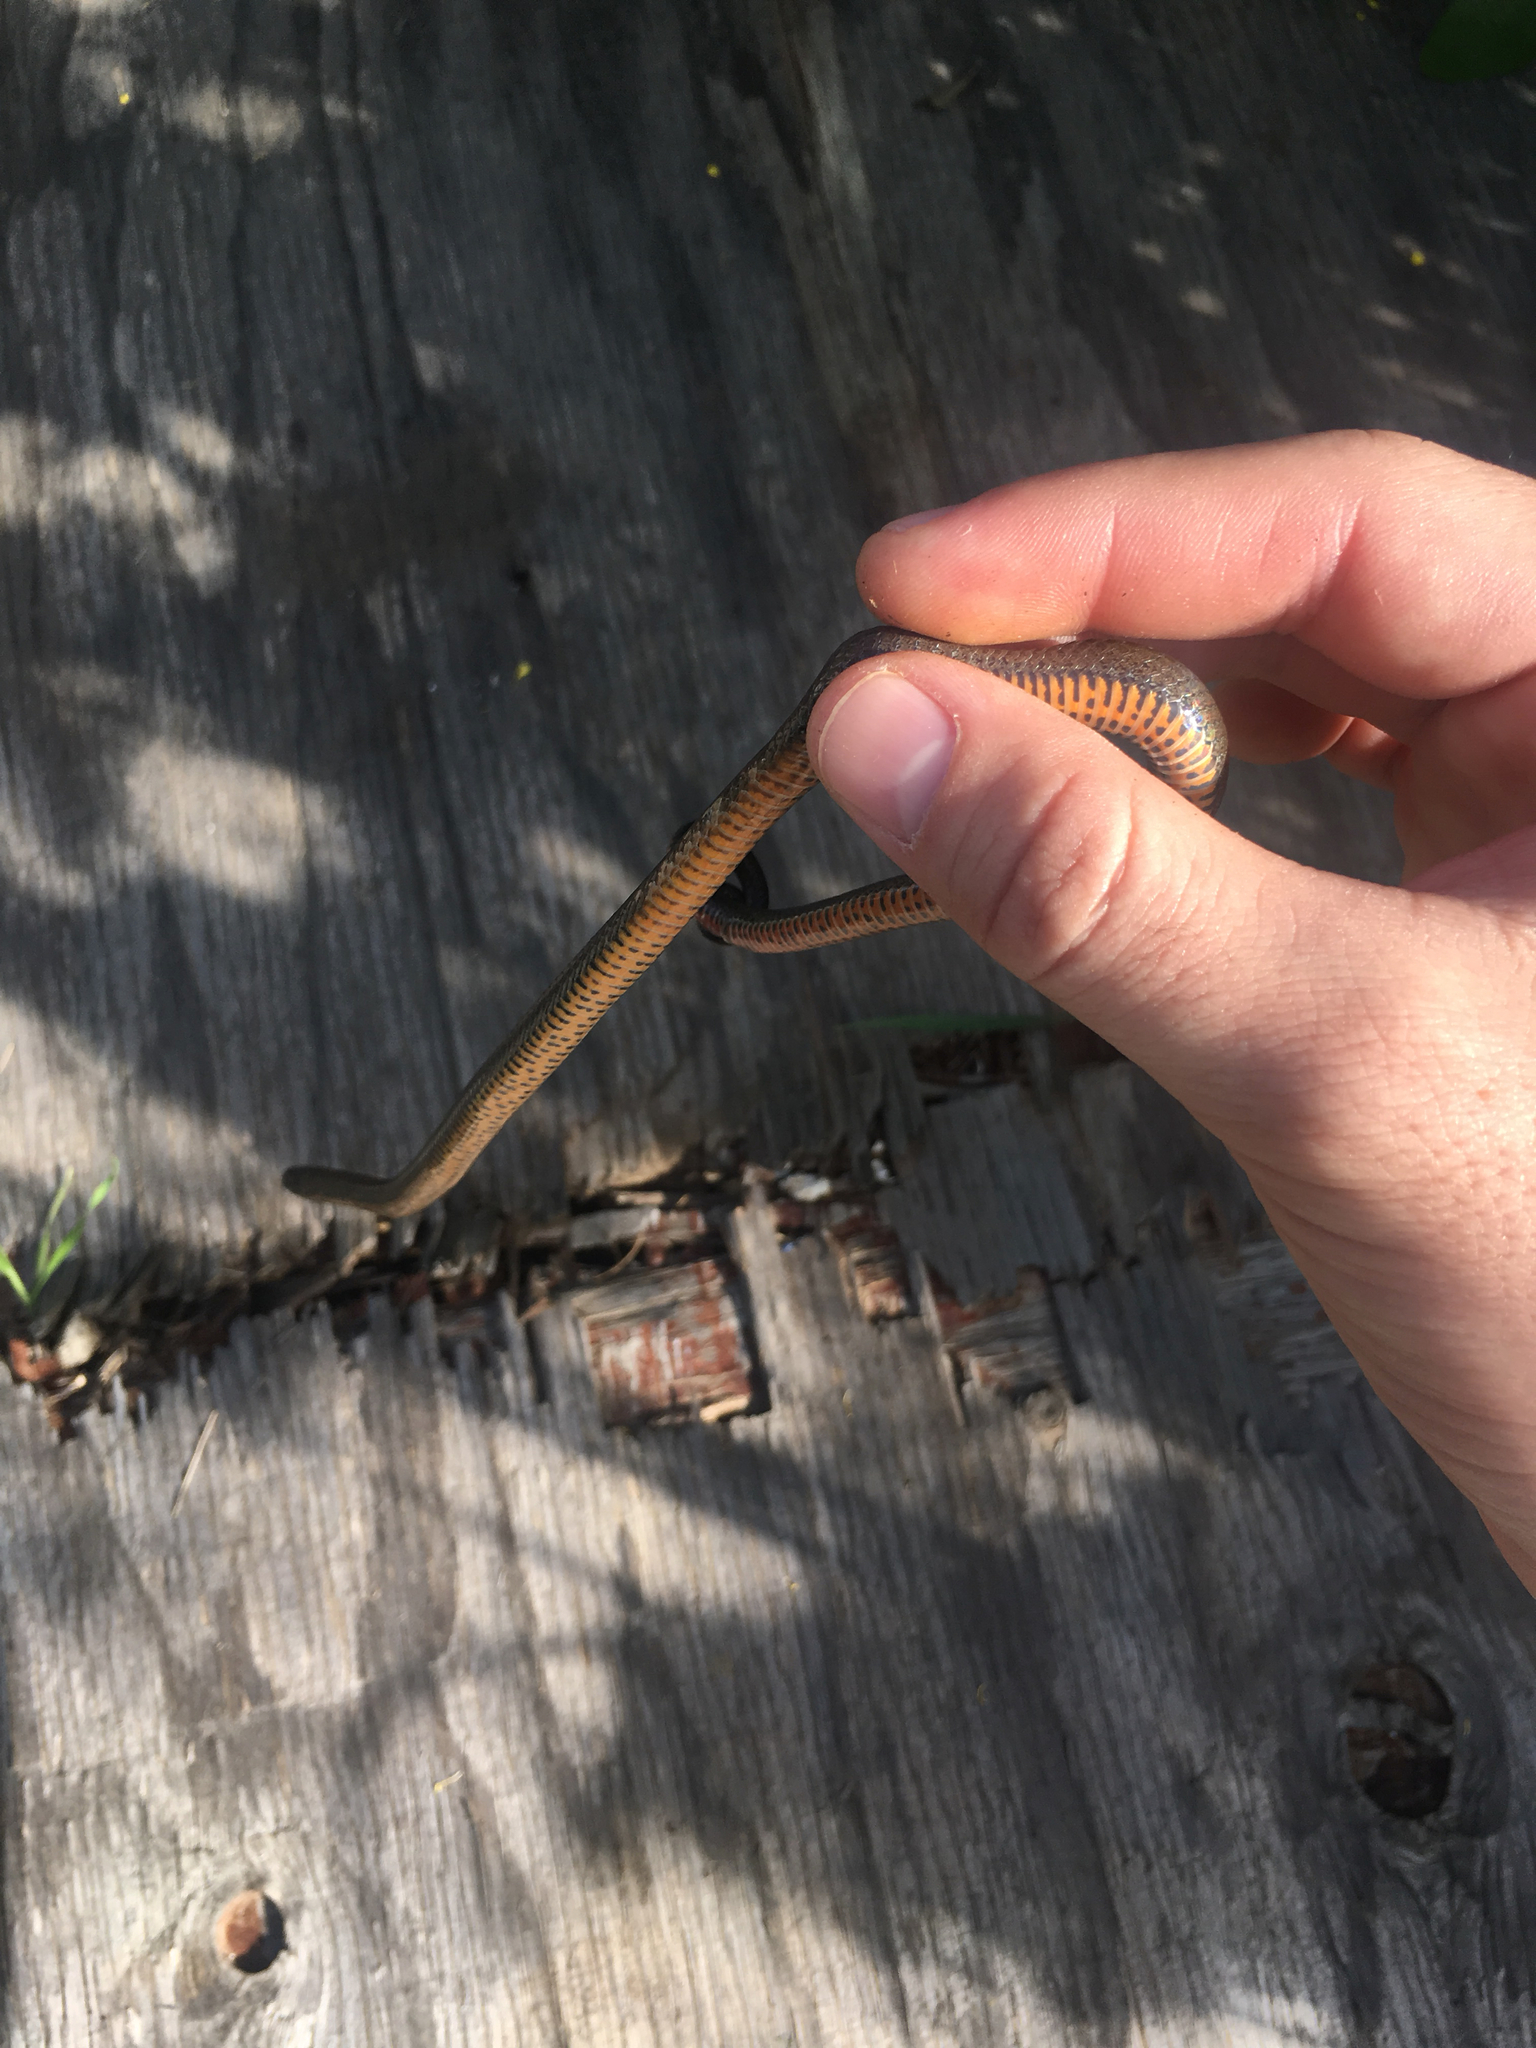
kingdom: Animalia
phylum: Chordata
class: Squamata
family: Colubridae
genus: Diadophis
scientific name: Diadophis punctatus
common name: Ringneck snake
